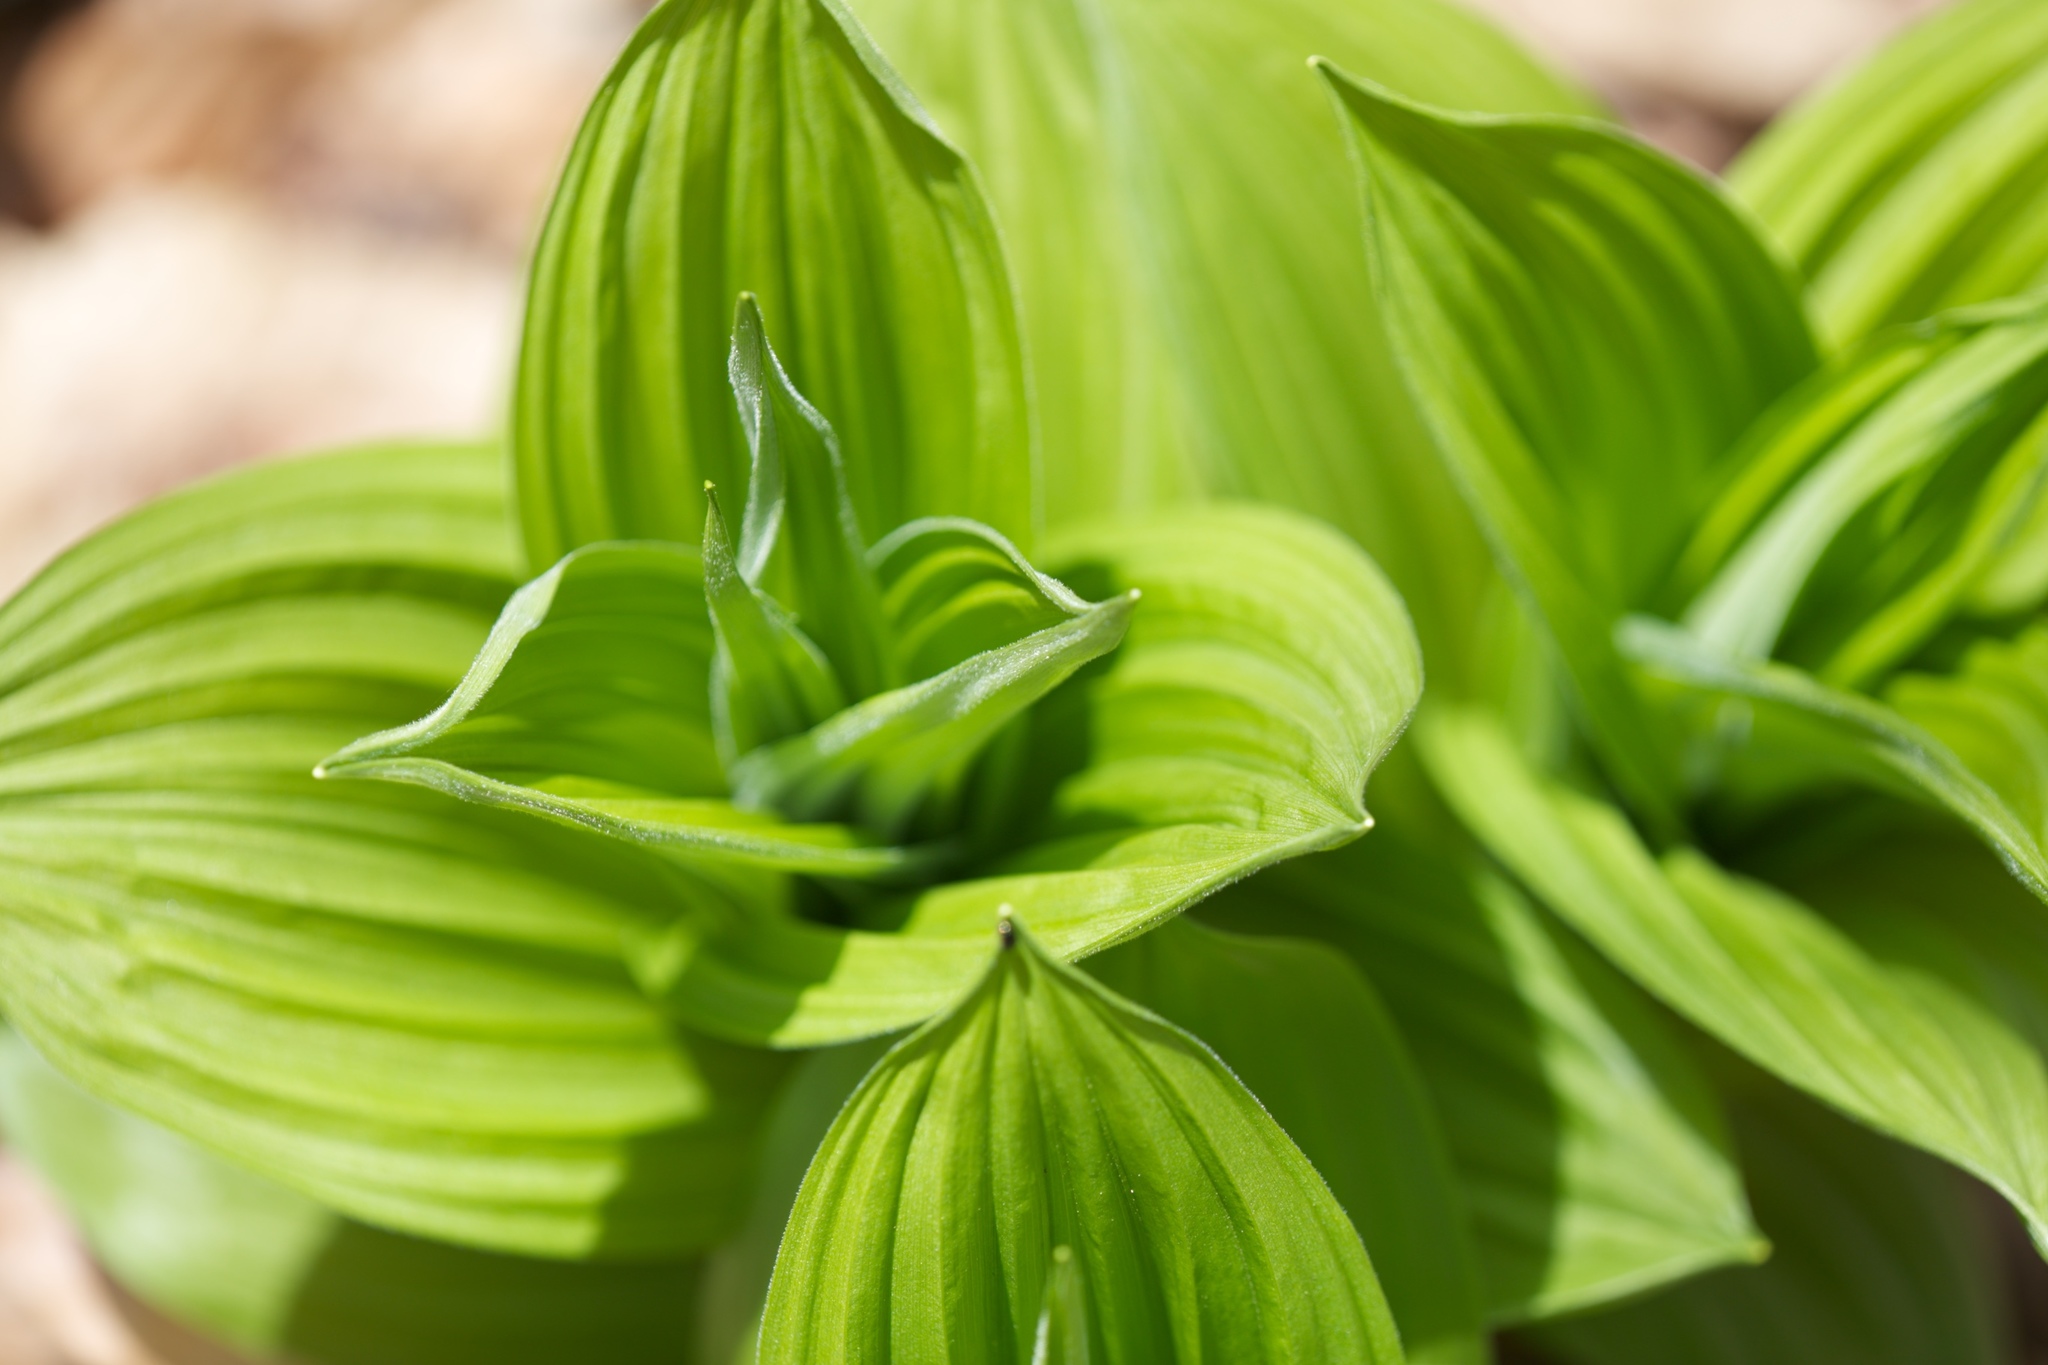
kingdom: Plantae
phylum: Tracheophyta
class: Liliopsida
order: Liliales
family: Melanthiaceae
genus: Veratrum
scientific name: Veratrum viride
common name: American false hellebore
